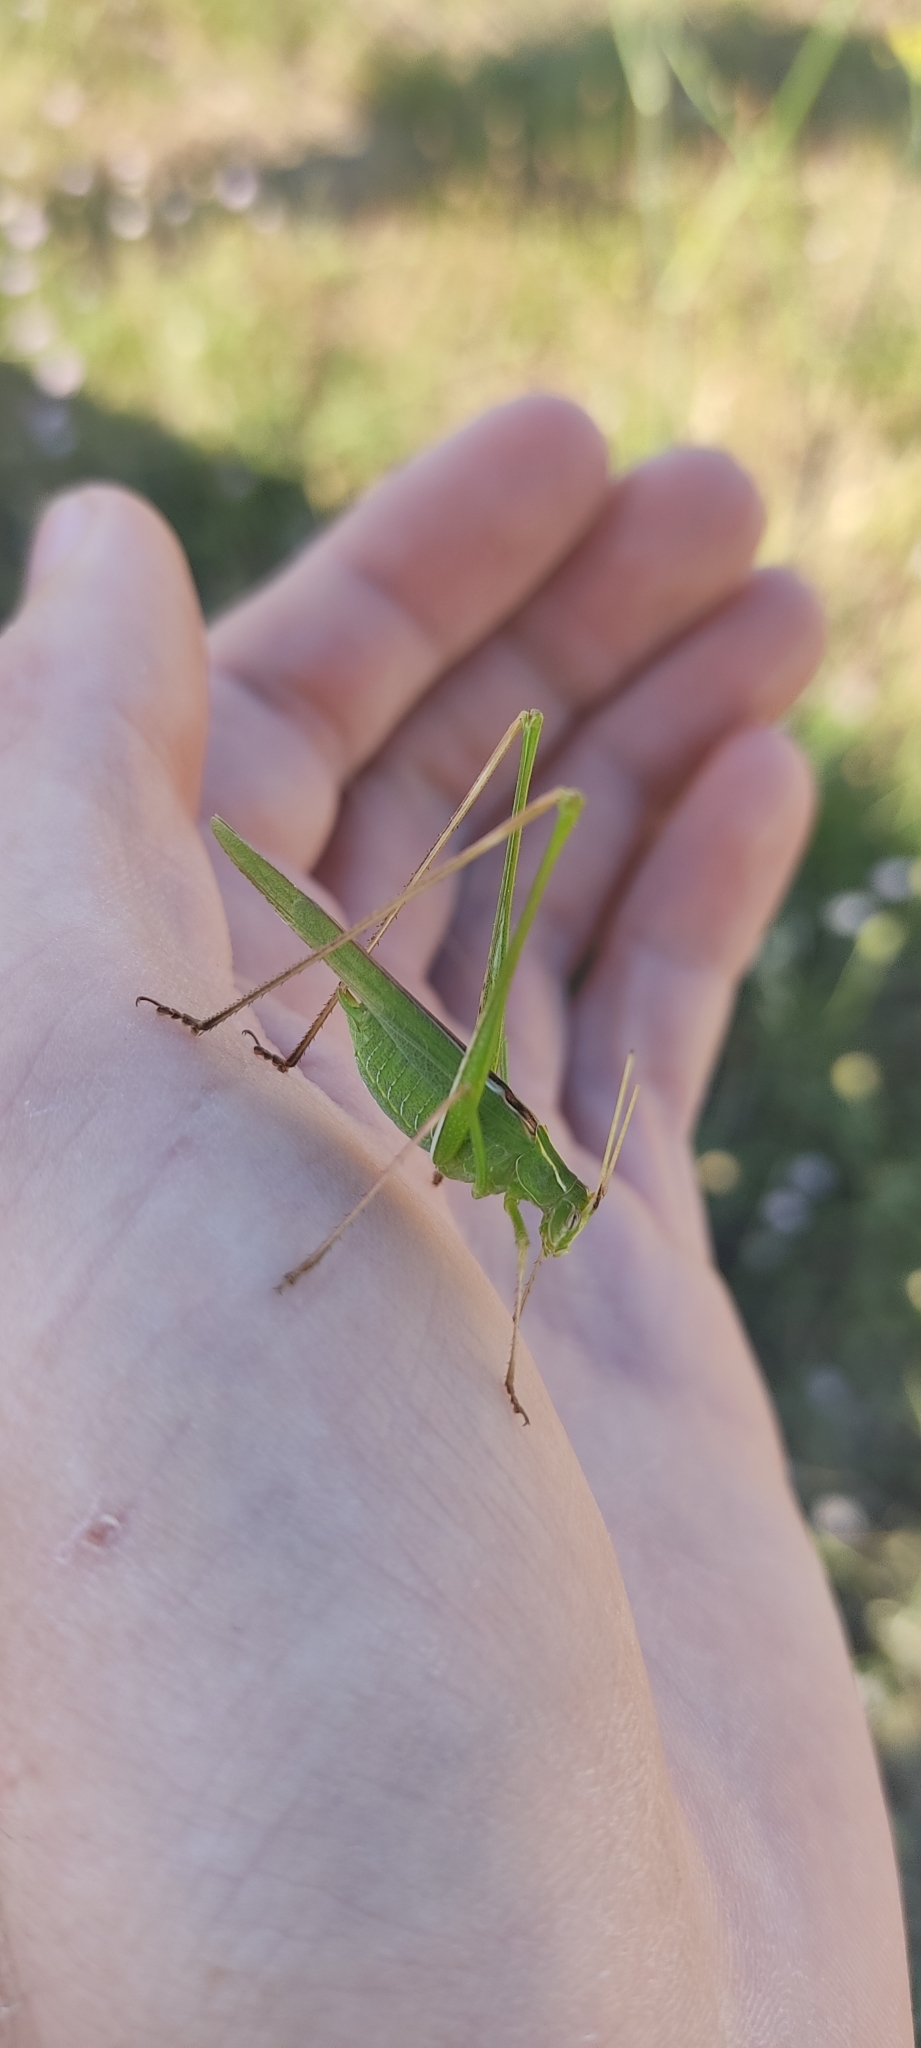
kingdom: Animalia
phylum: Arthropoda
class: Insecta
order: Orthoptera
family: Tettigoniidae
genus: Tylopsis
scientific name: Tylopsis lilifolia
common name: Lily bush-cricket
